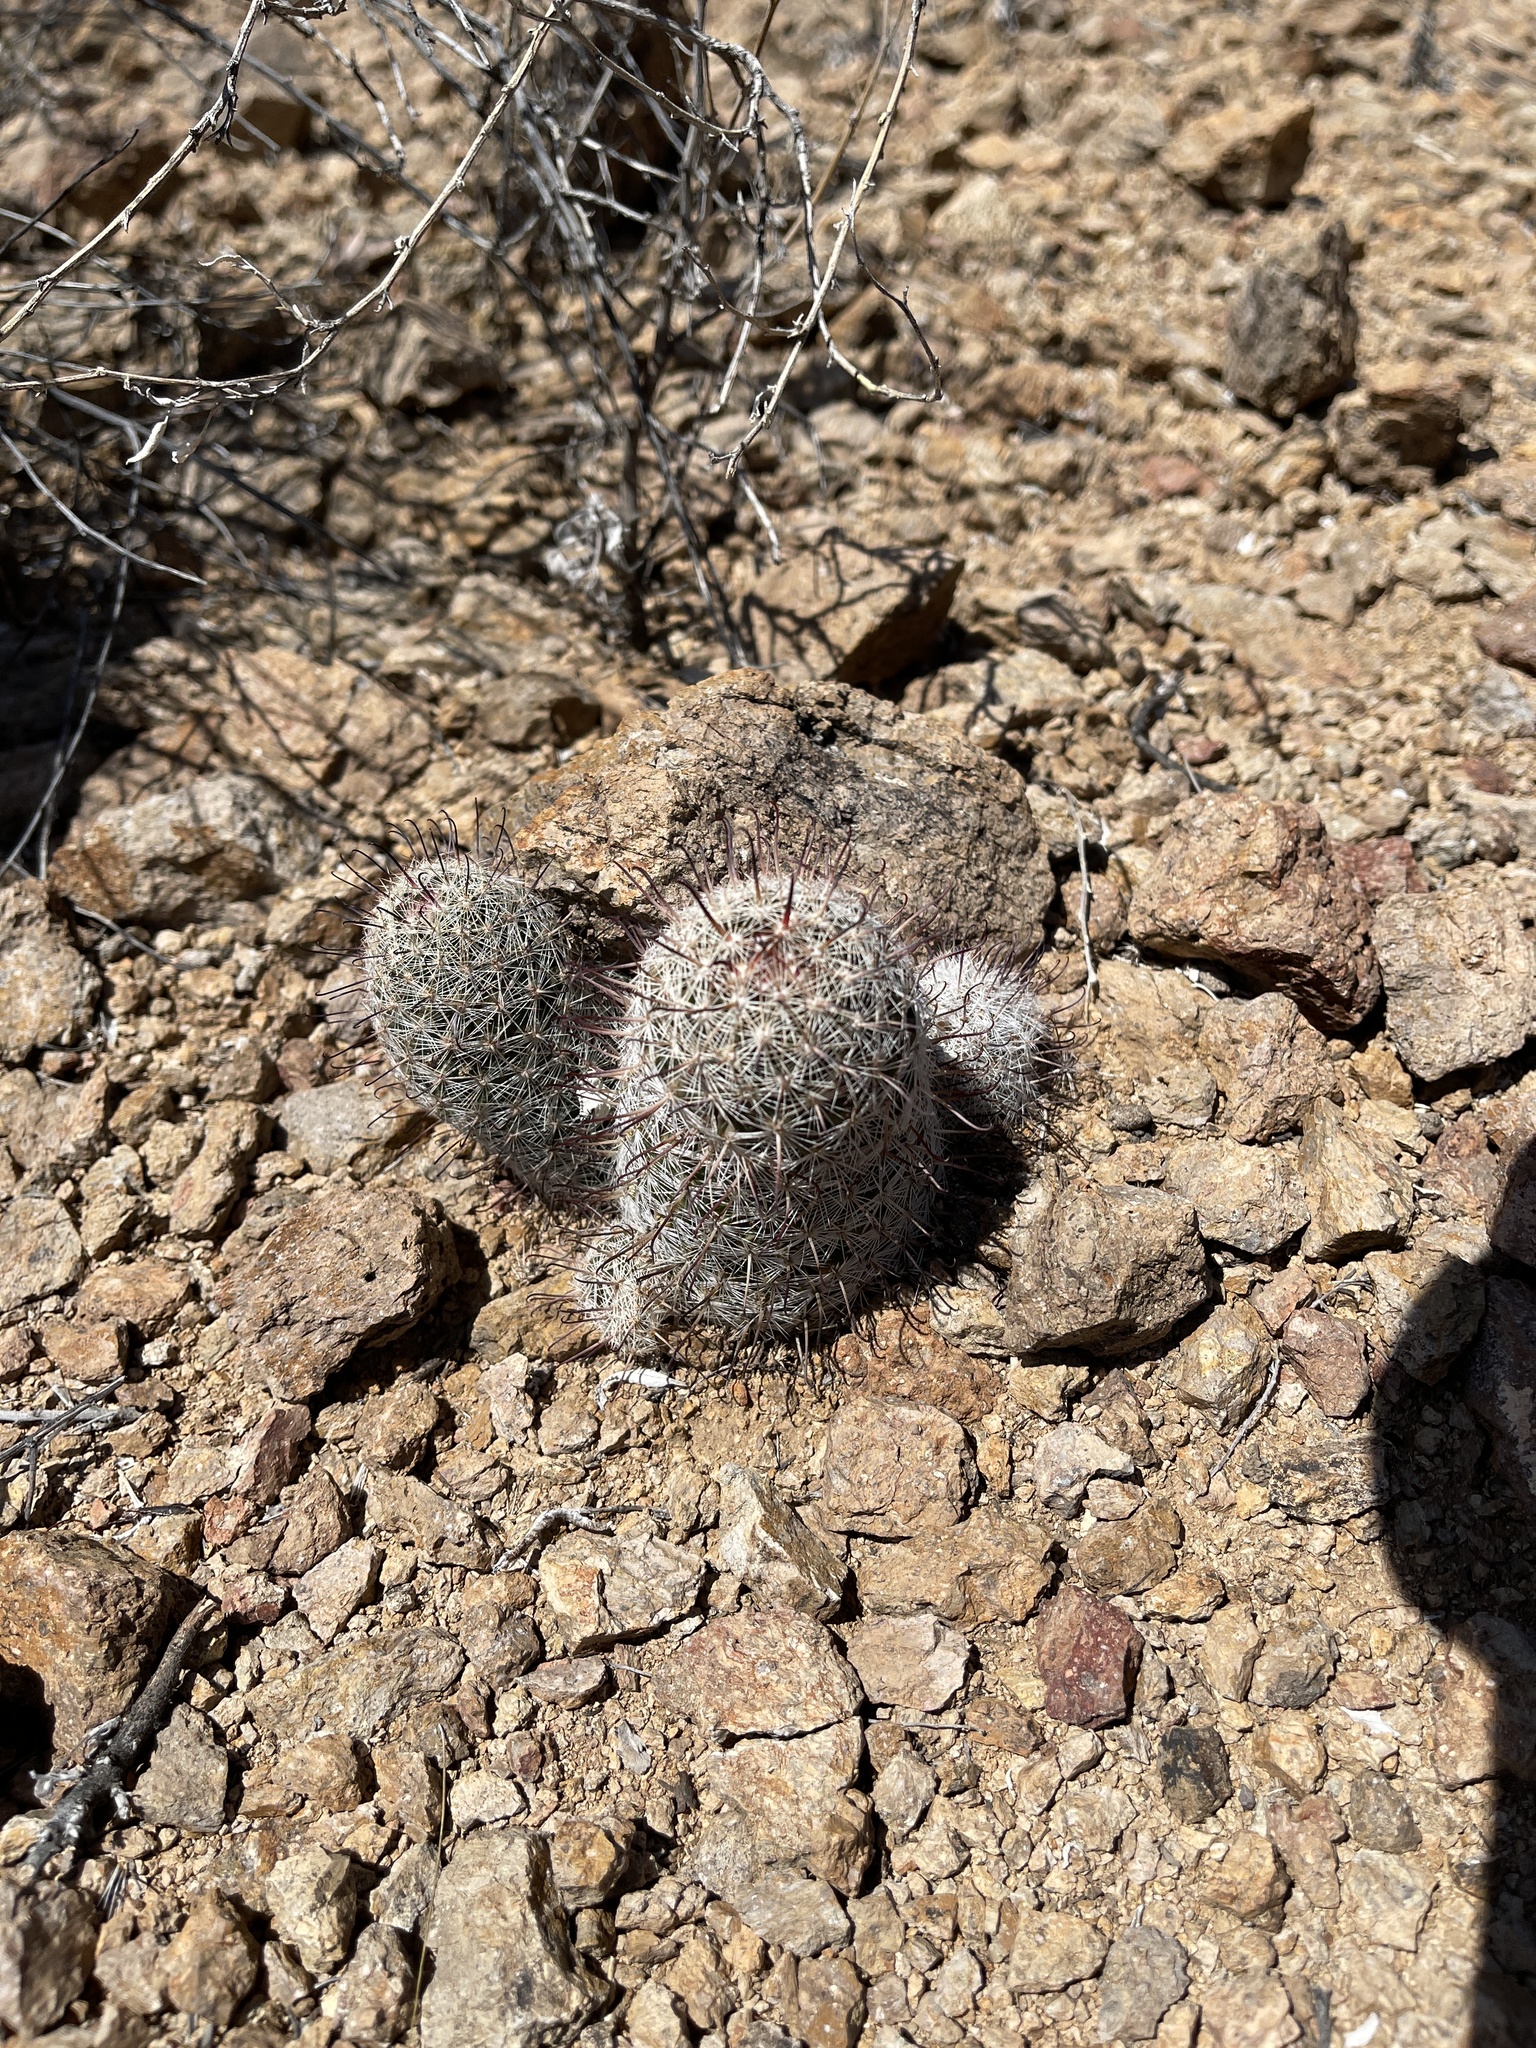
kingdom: Plantae
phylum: Tracheophyta
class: Magnoliopsida
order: Caryophyllales
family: Cactaceae
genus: Cochemiea
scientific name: Cochemiea grahamii
